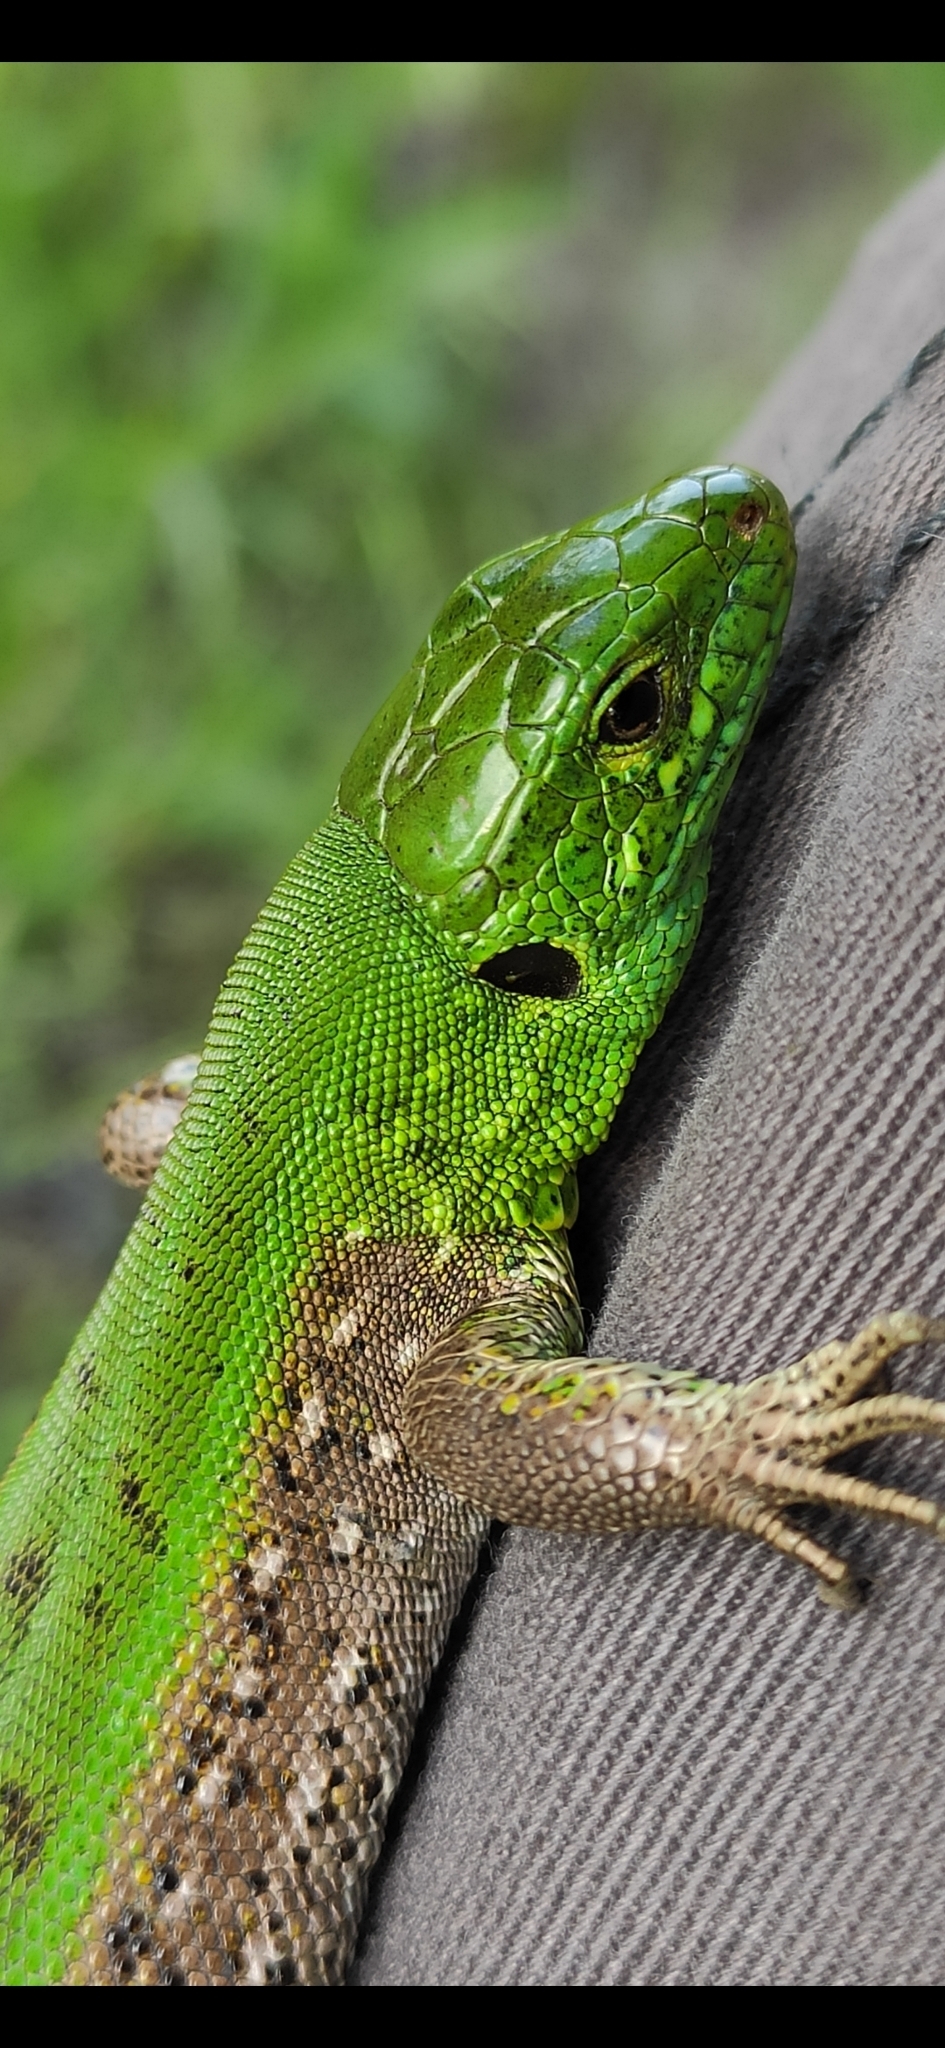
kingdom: Animalia
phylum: Chordata
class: Squamata
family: Lacertidae
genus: Lacerta
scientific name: Lacerta agilis
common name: Sand lizard
